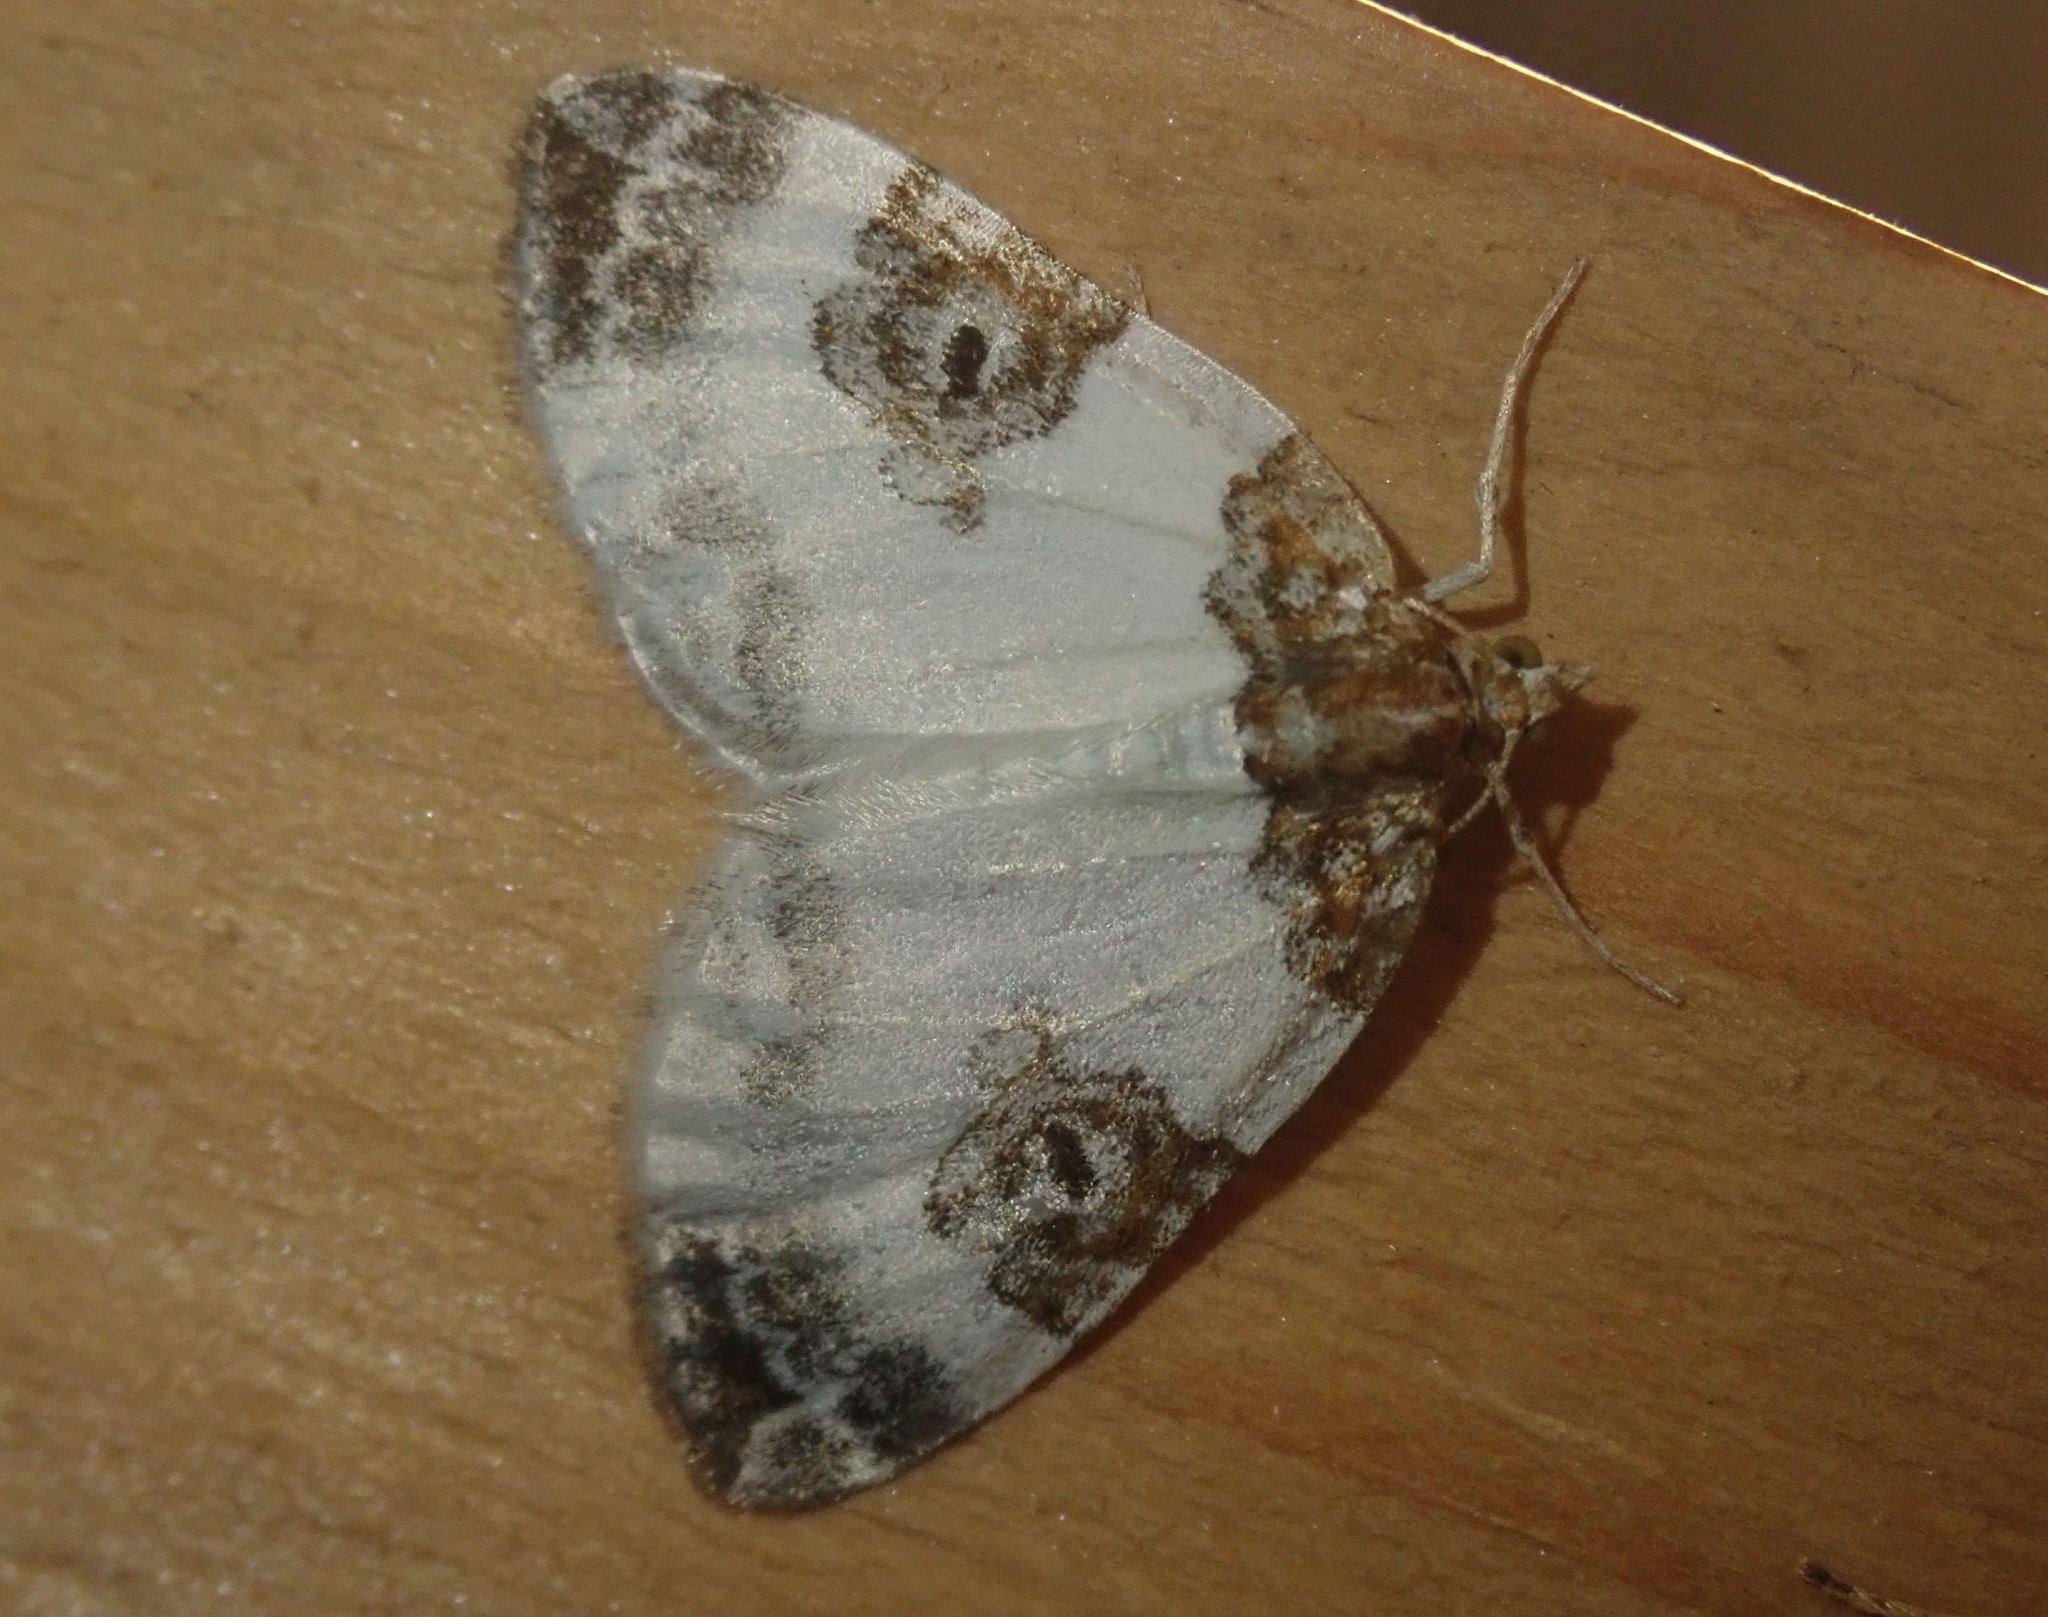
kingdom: Animalia
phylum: Arthropoda
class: Insecta
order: Lepidoptera
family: Geometridae
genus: Plemyria
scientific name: Plemyria rubiginata
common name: Blue-bordered carpet
